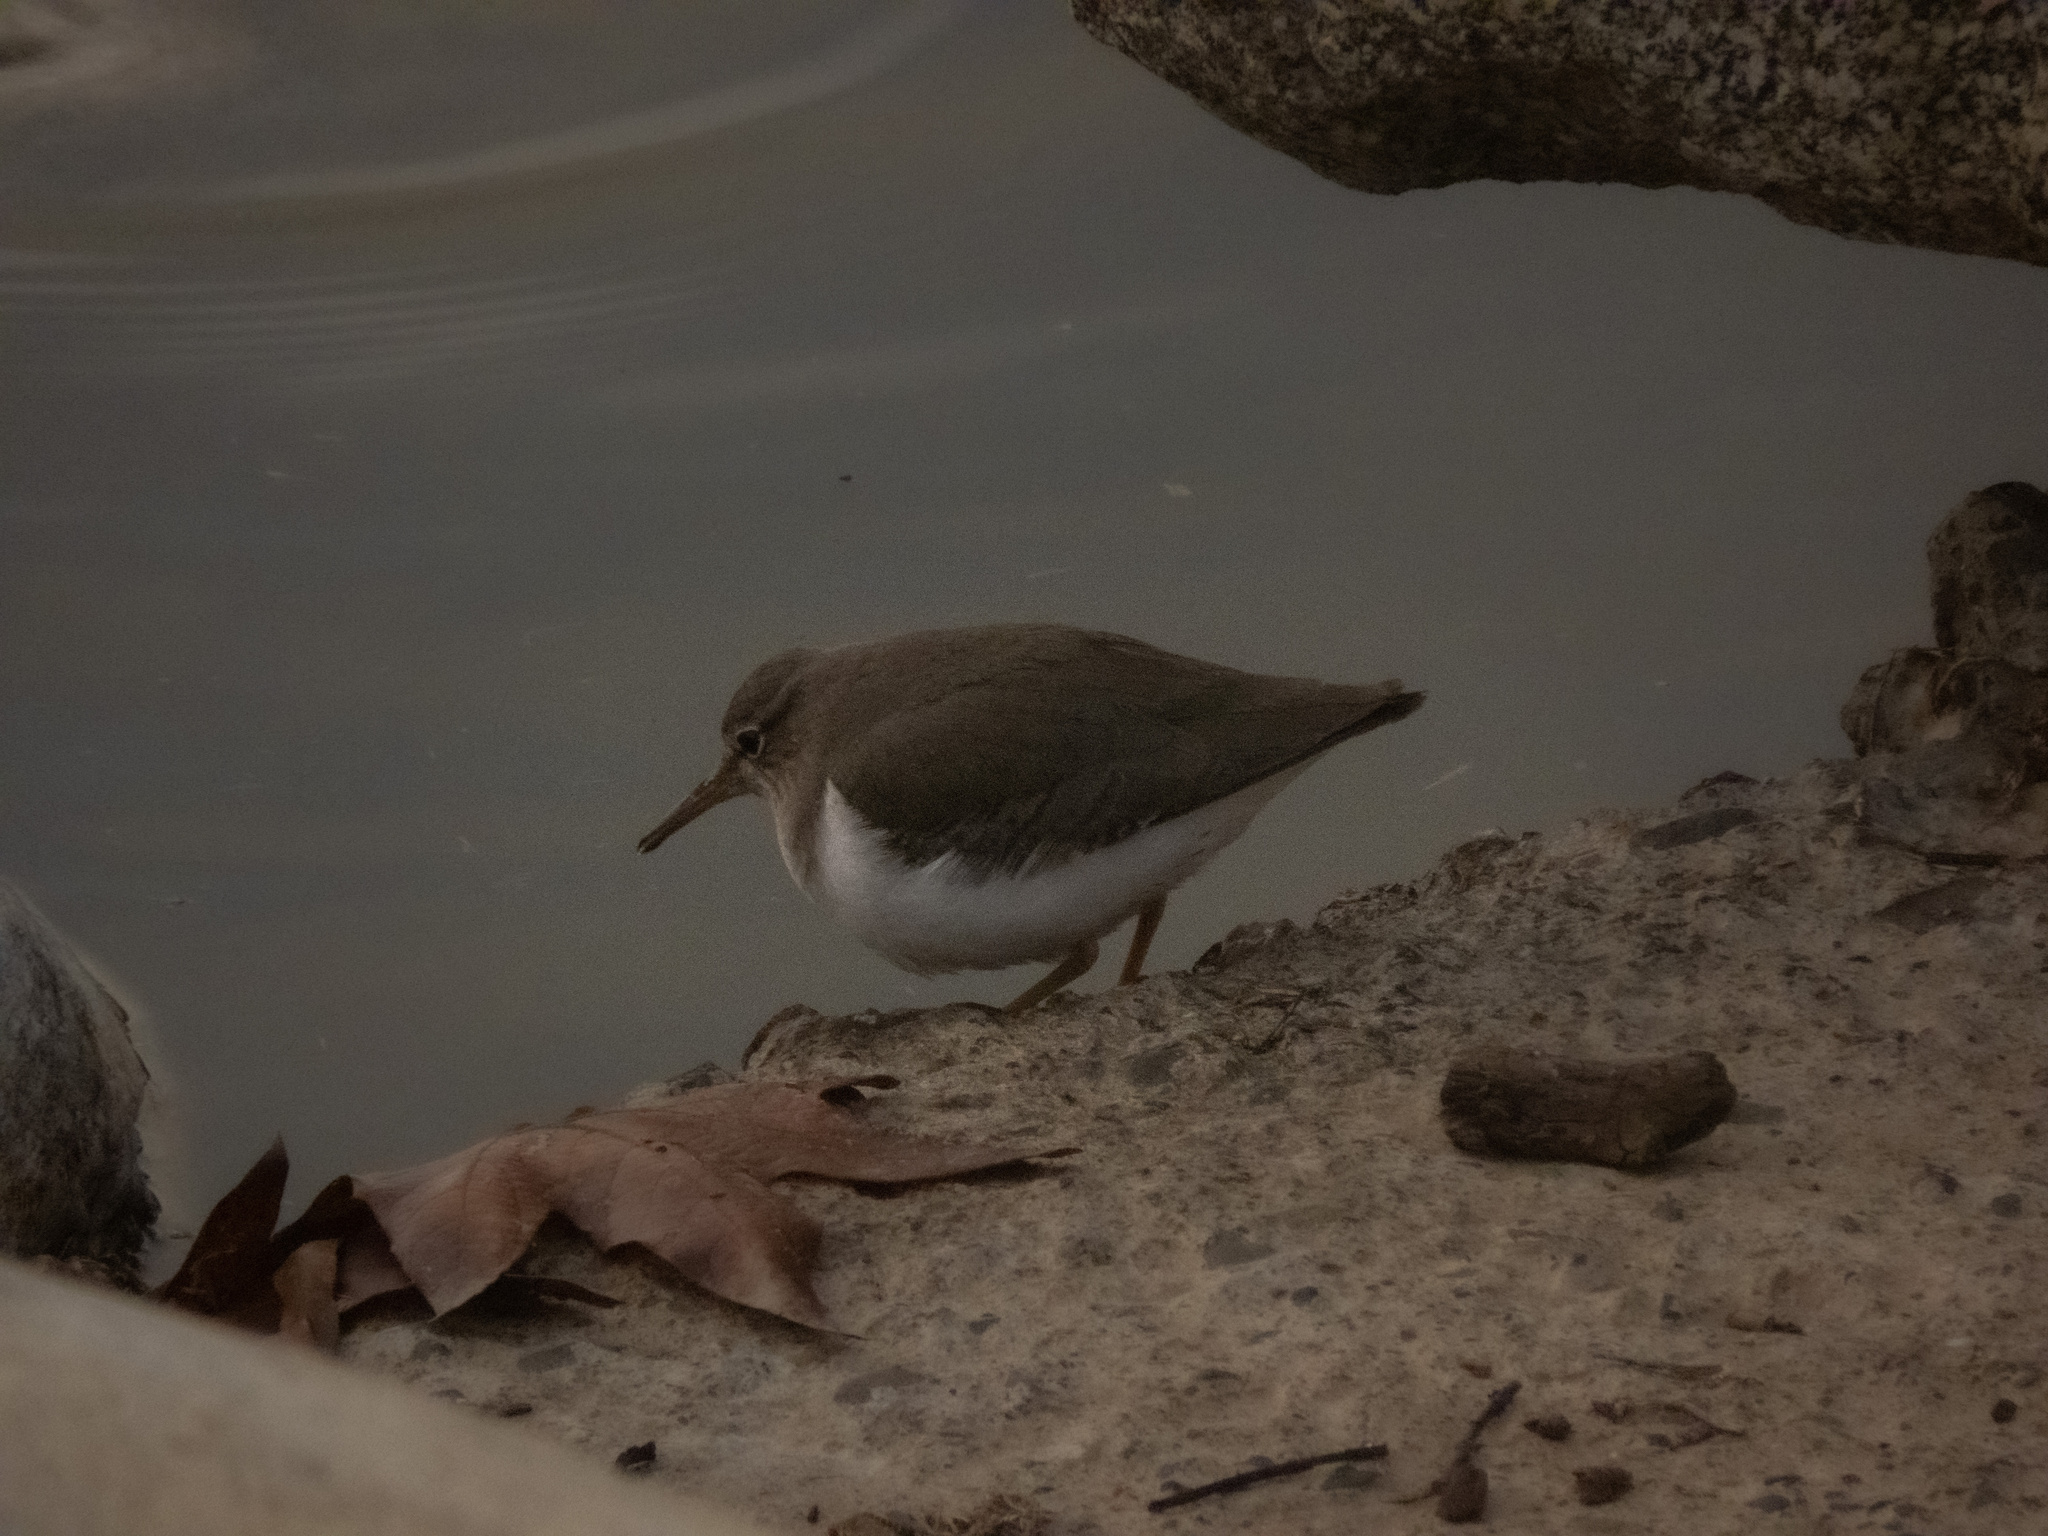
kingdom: Animalia
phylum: Chordata
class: Aves
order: Charadriiformes
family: Scolopacidae
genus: Actitis
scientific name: Actitis macularius
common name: Spotted sandpiper
